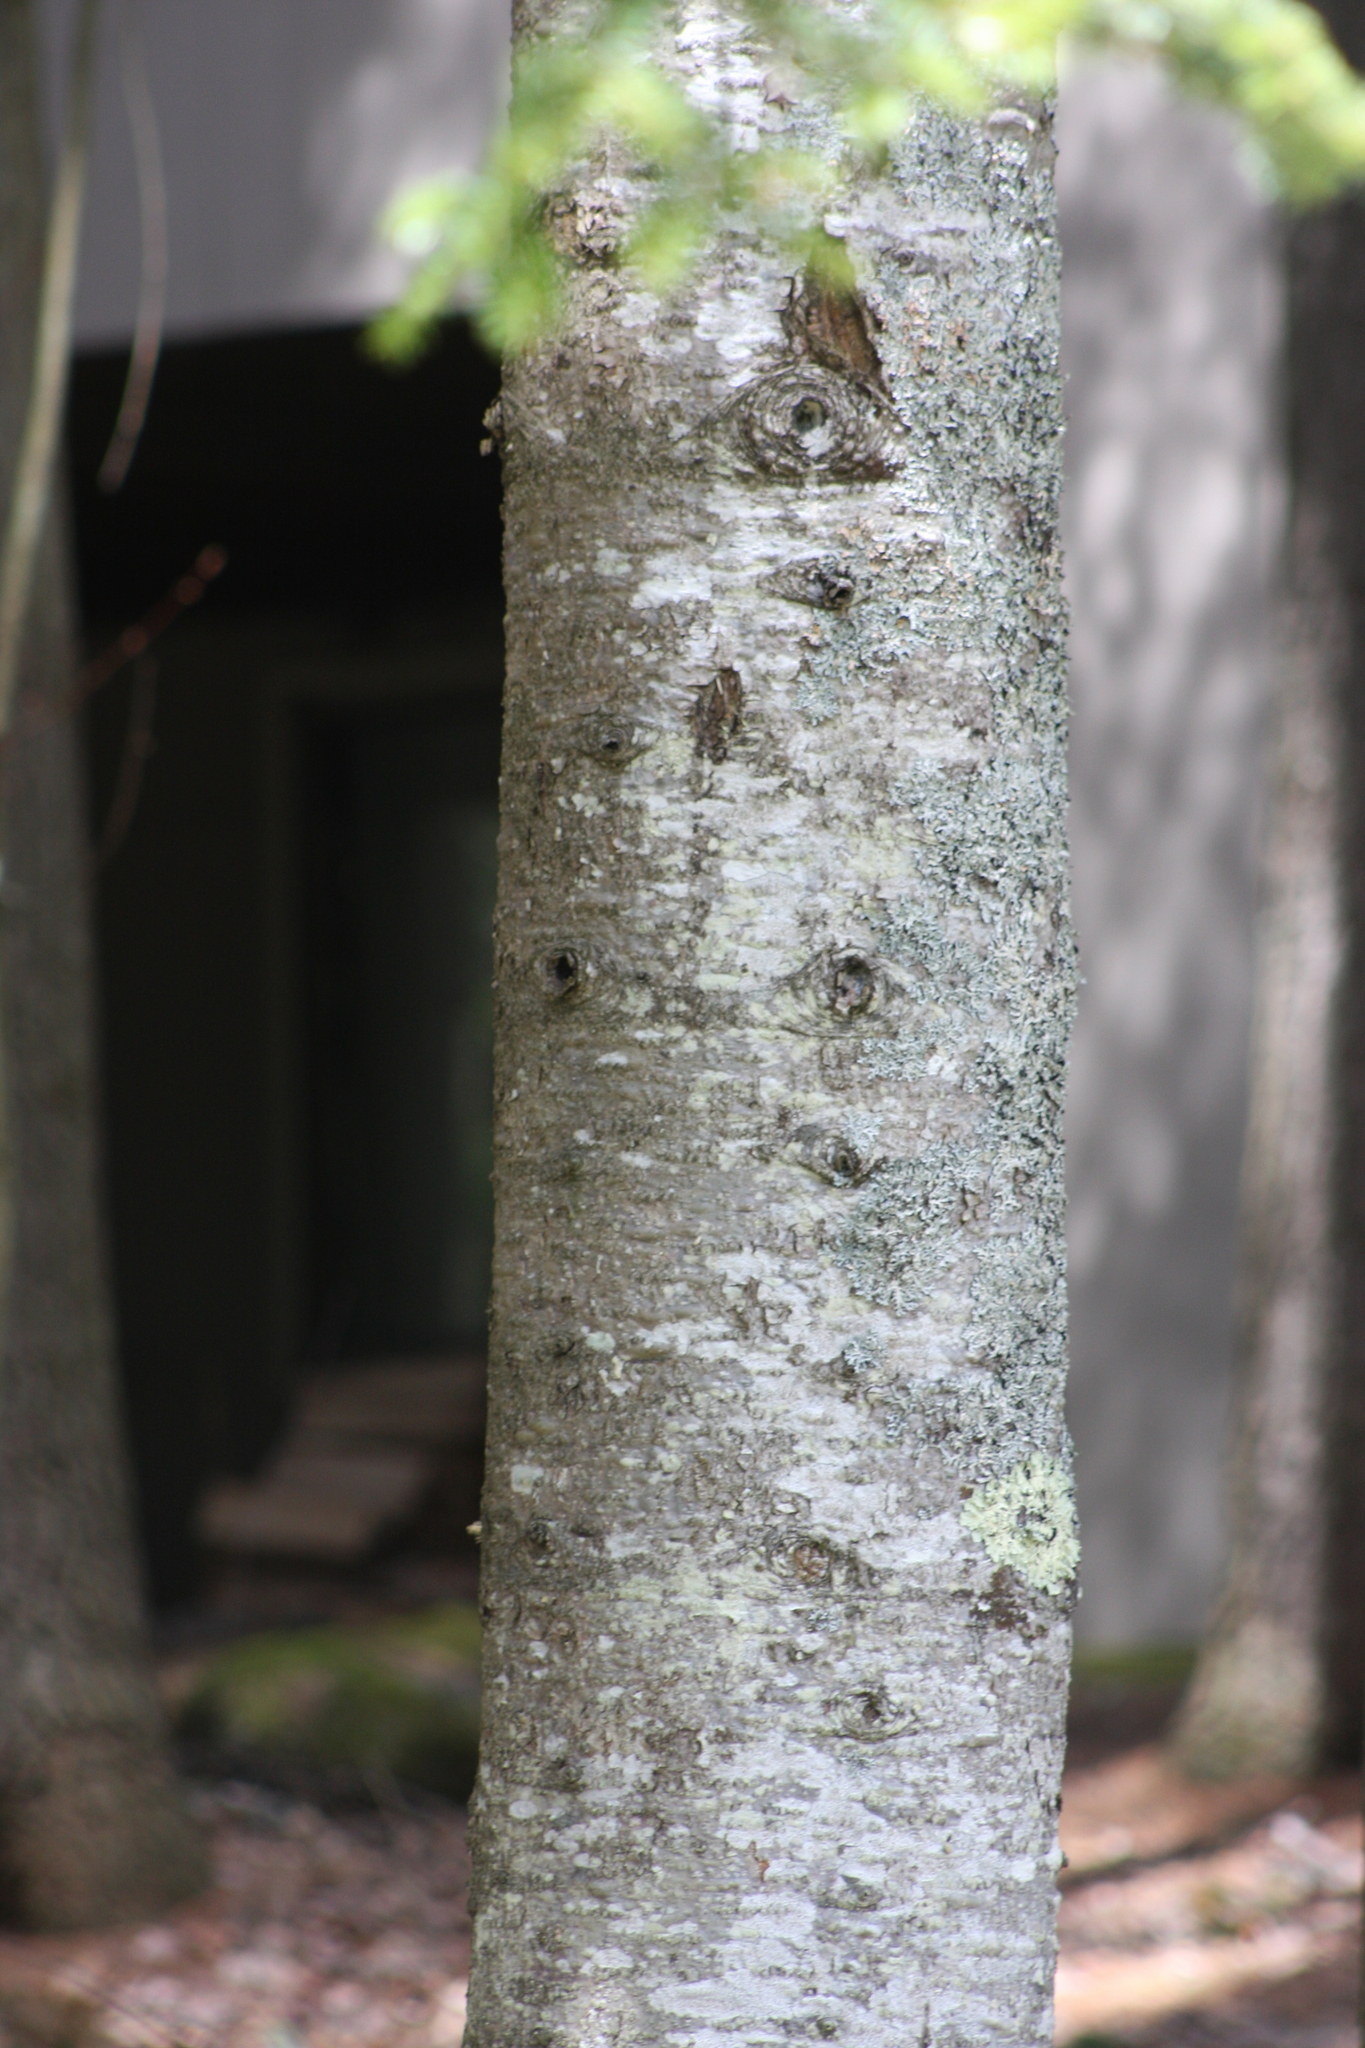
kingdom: Plantae
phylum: Tracheophyta
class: Pinopsida
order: Pinales
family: Pinaceae
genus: Abies
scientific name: Abies balsamea
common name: Balsam fir
